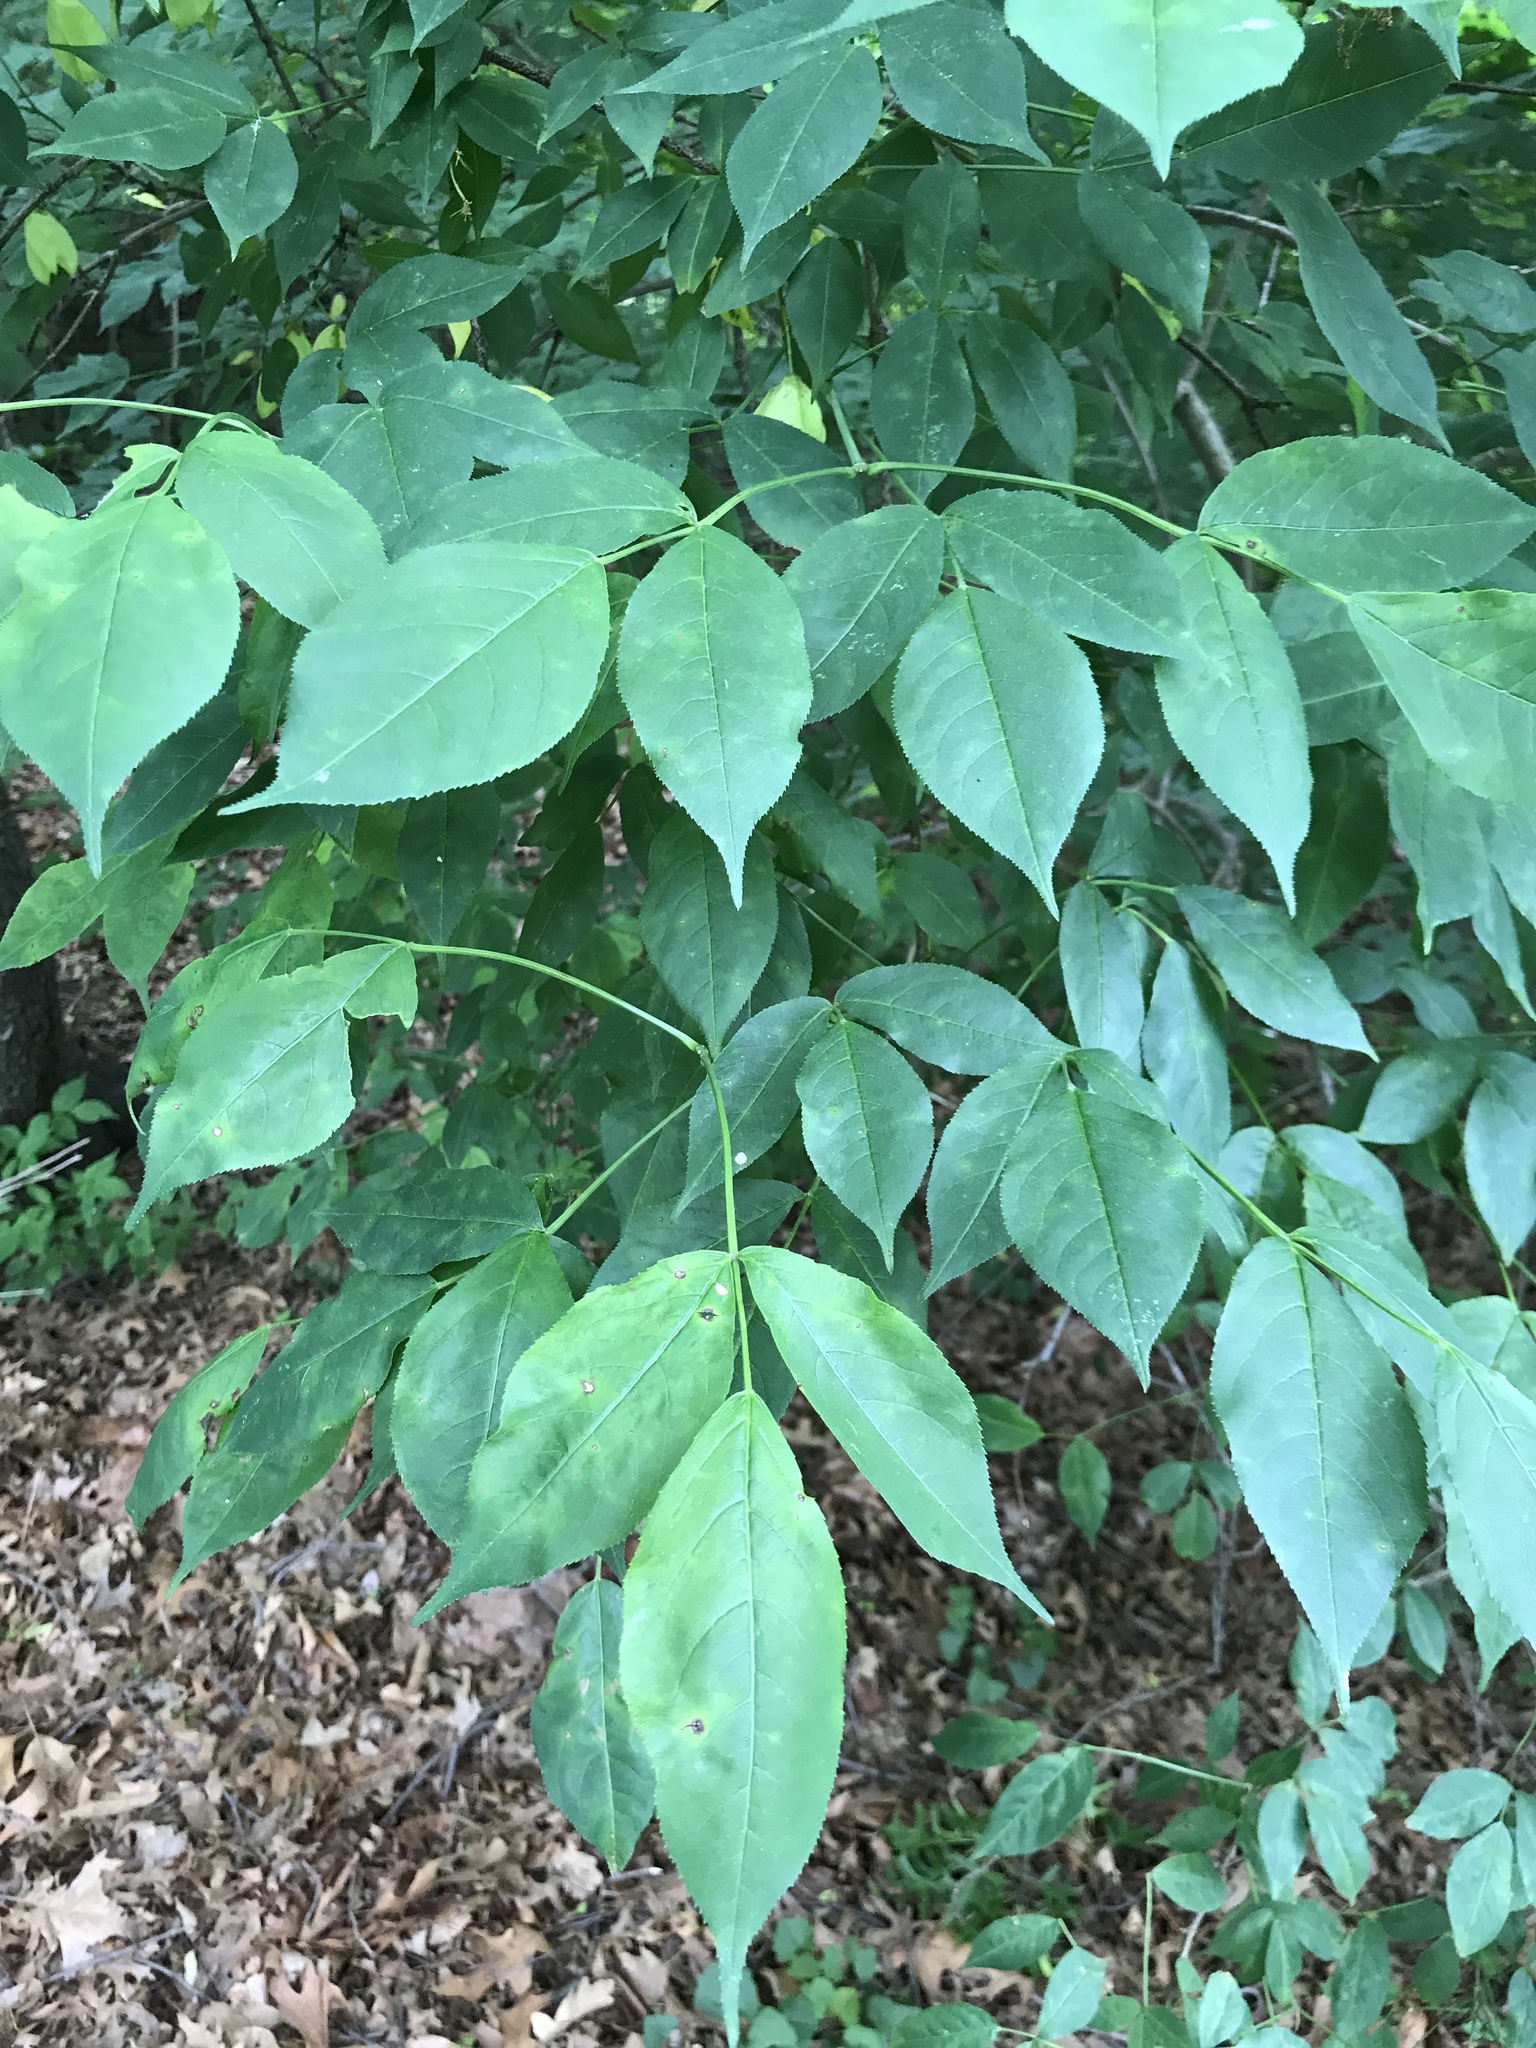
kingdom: Plantae
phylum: Tracheophyta
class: Magnoliopsida
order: Crossosomatales
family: Staphyleaceae
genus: Staphylea
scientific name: Staphylea trifolia
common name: American bladdernut
